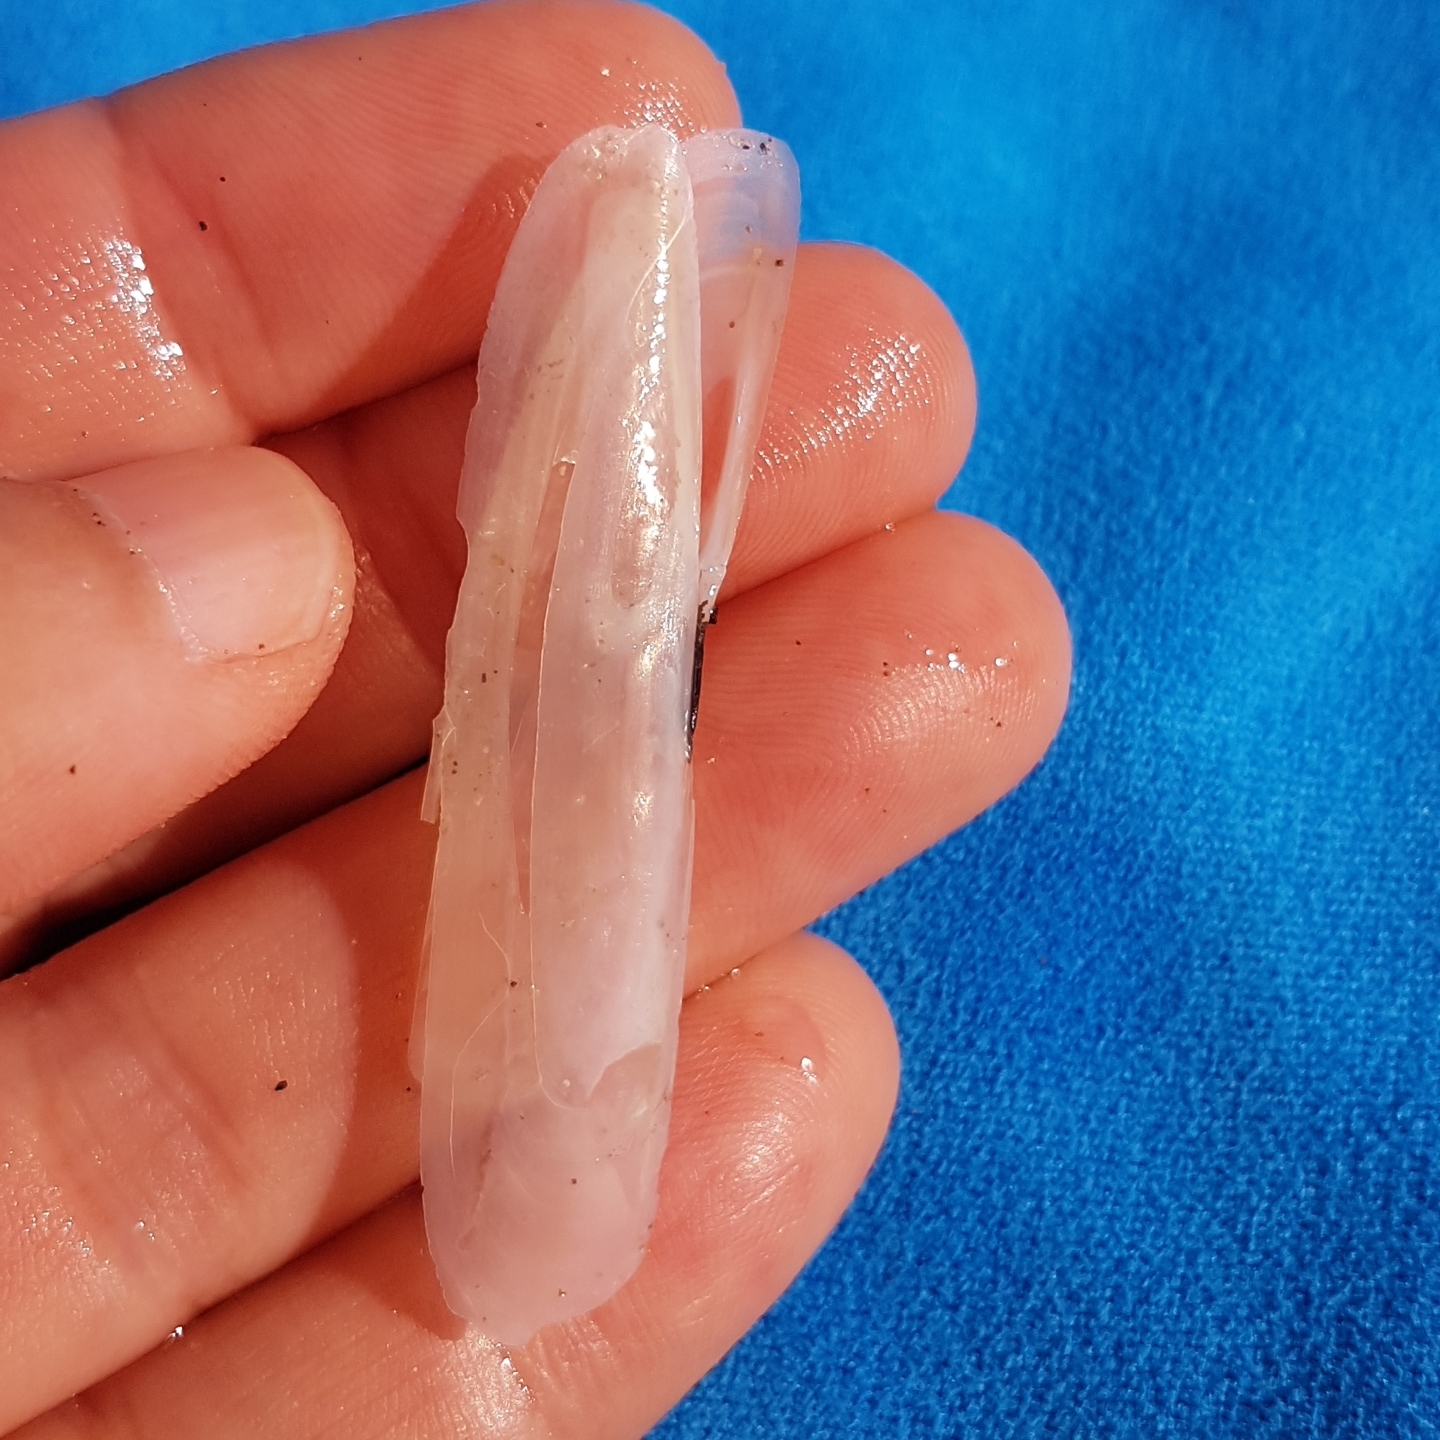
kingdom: Animalia
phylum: Mollusca
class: Bivalvia
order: Adapedonta
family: Pharidae
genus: Pharus
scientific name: Pharus legumen
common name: Bean razor clam
